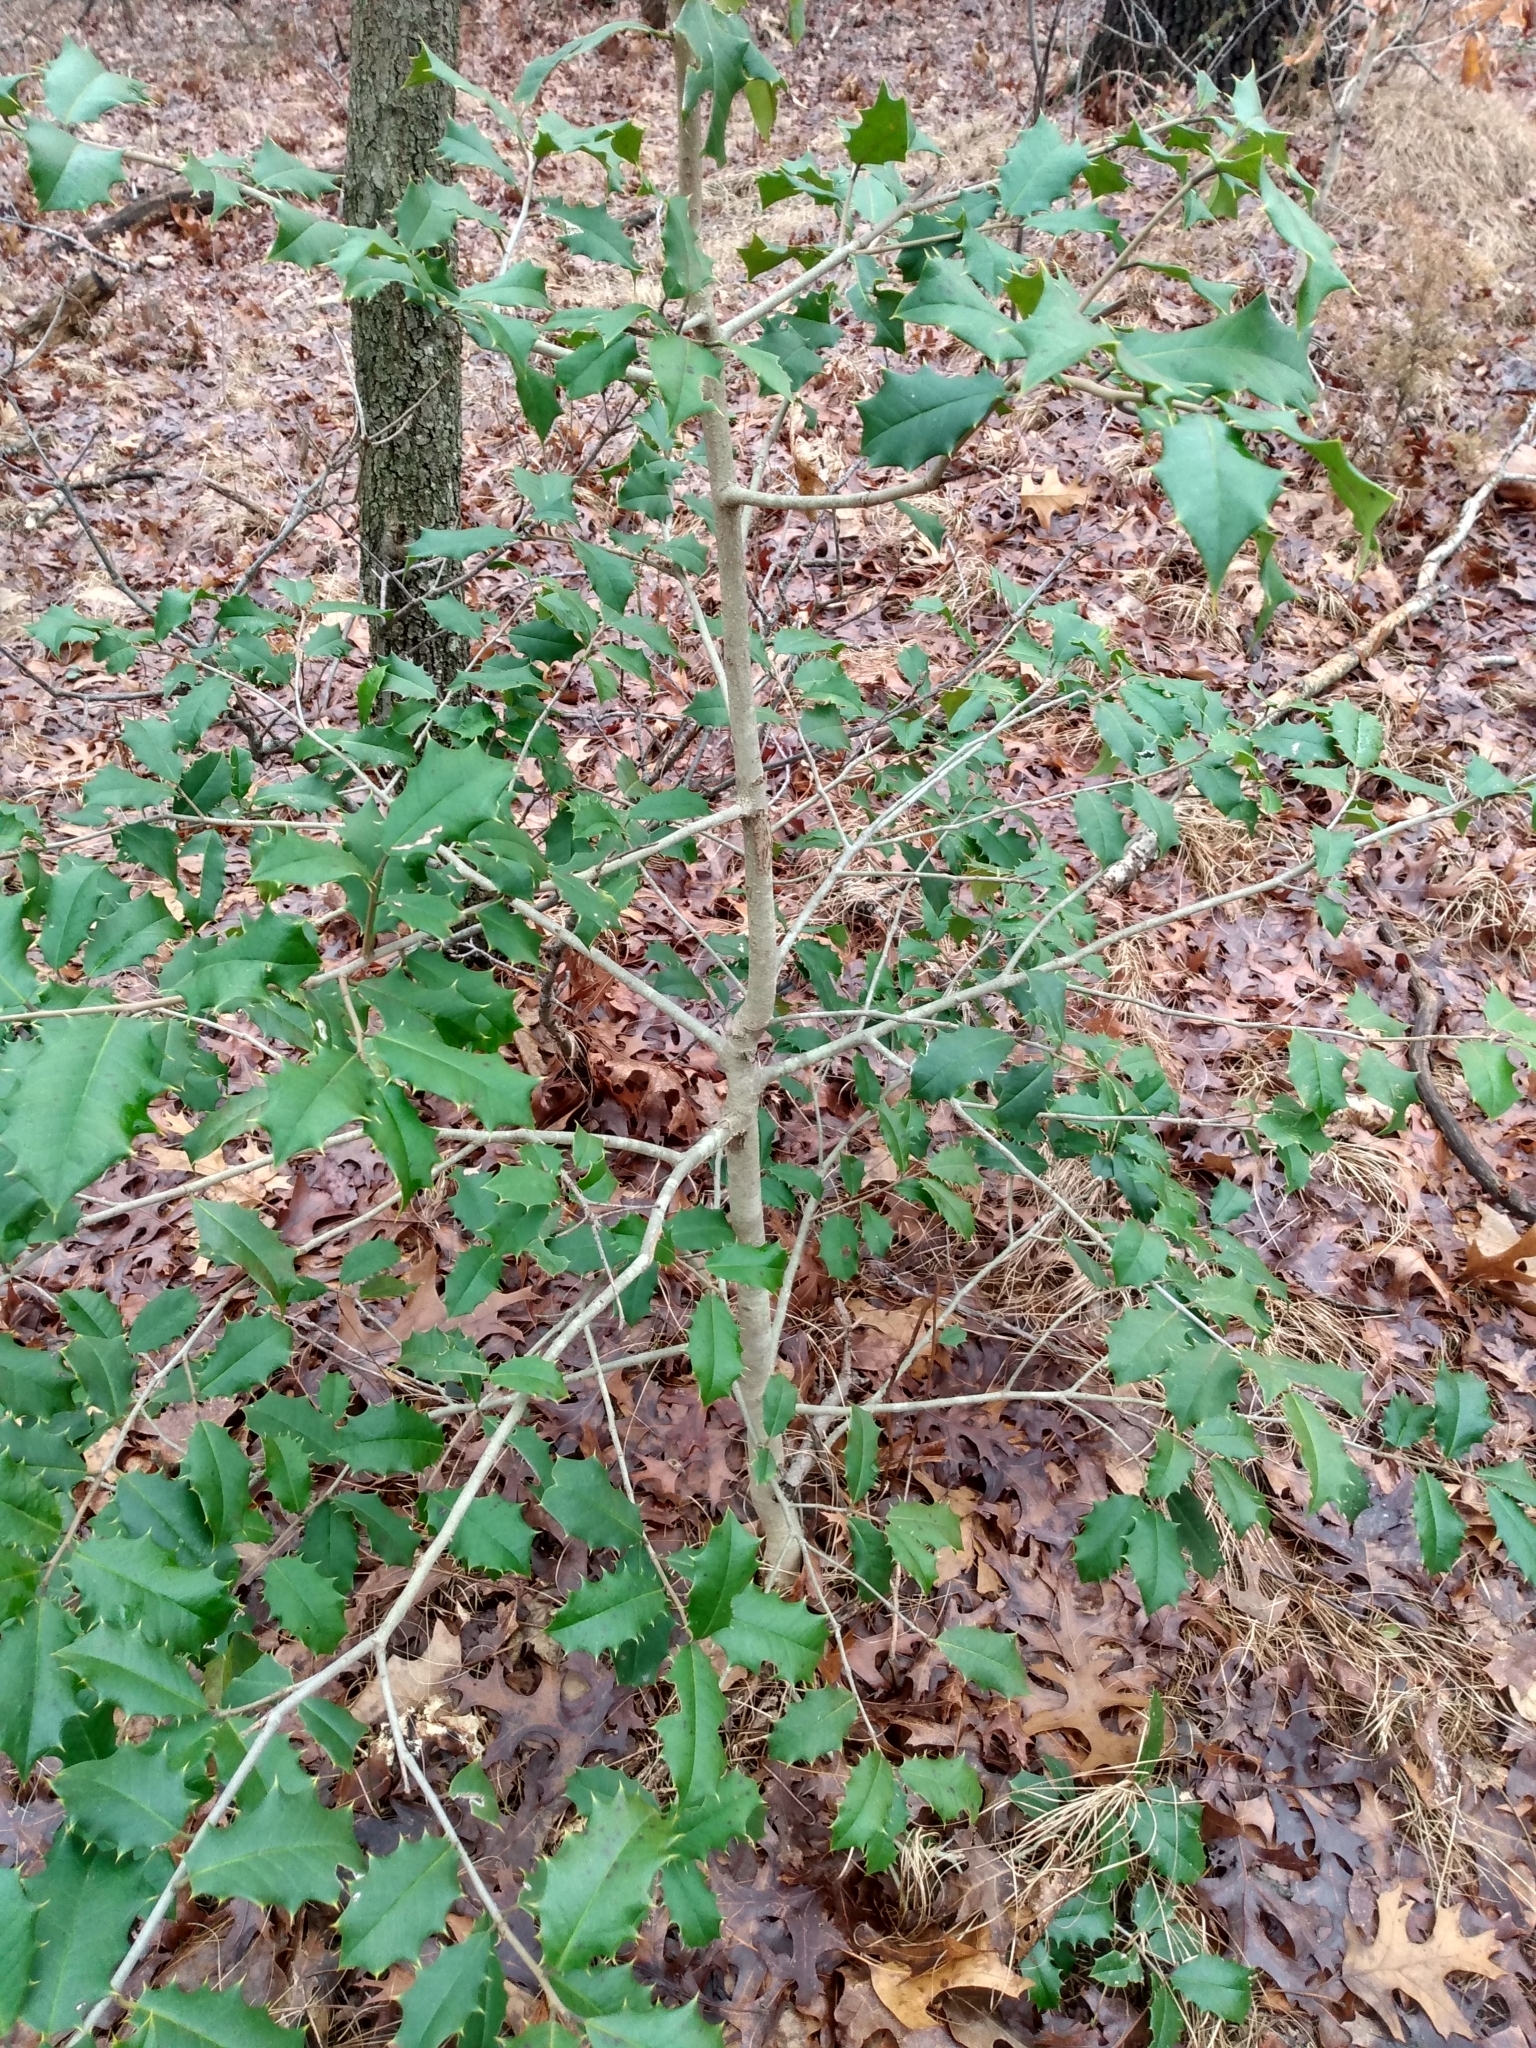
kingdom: Plantae
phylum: Tracheophyta
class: Magnoliopsida
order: Aquifoliales
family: Aquifoliaceae
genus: Ilex
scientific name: Ilex opaca
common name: American holly
